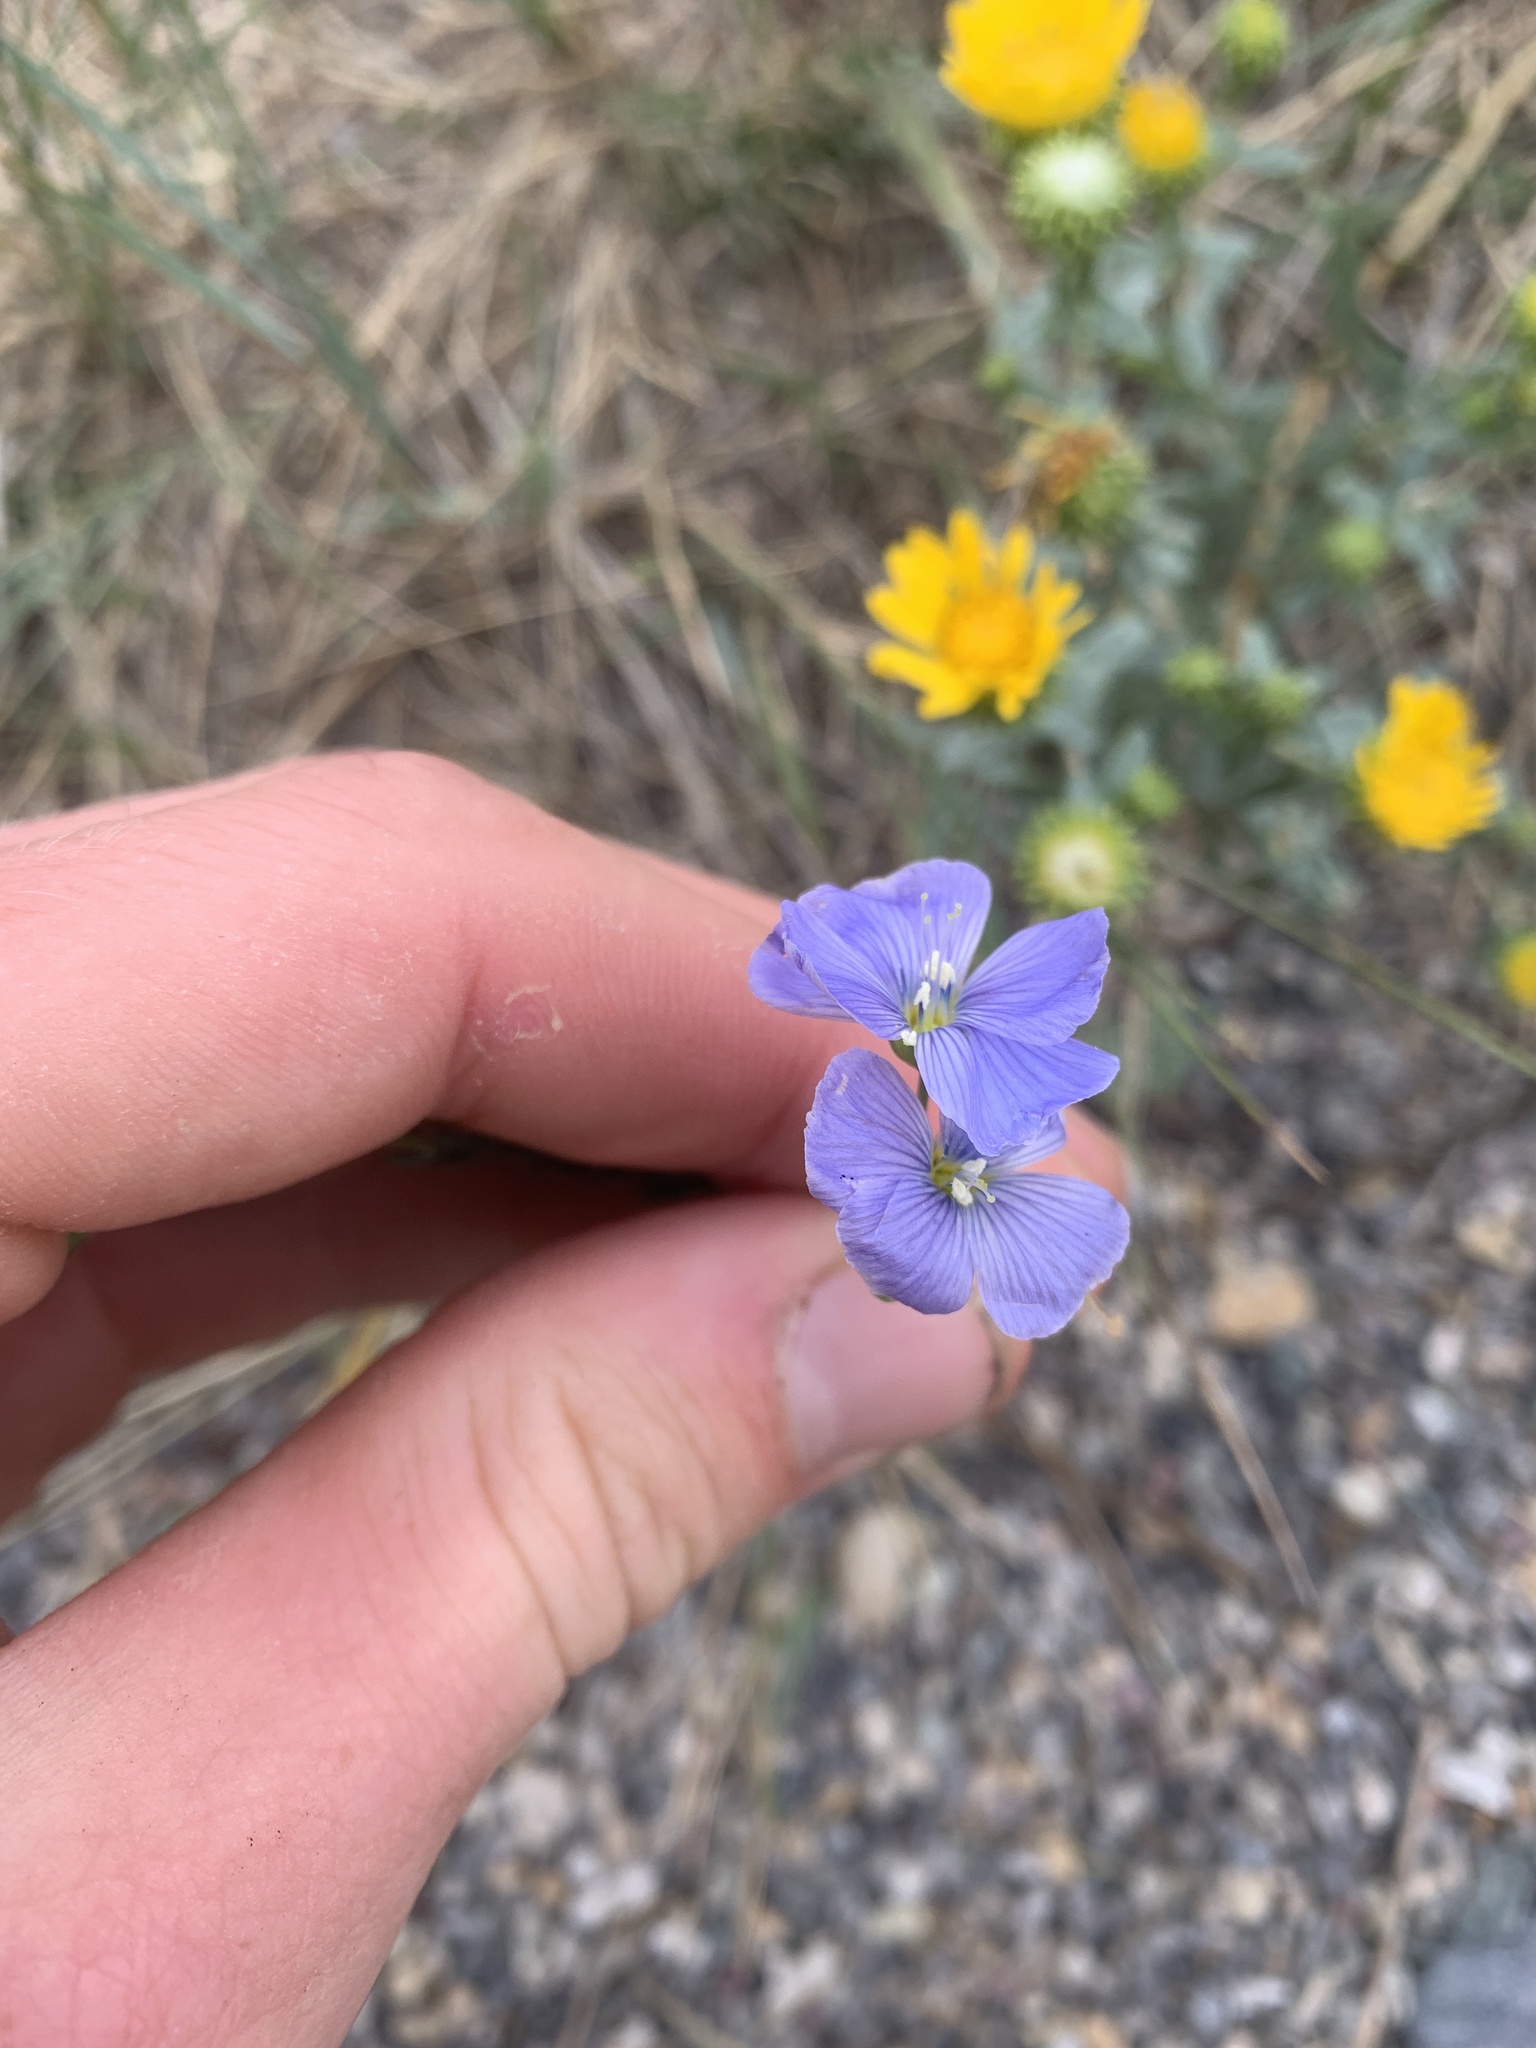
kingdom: Plantae
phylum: Tracheophyta
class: Magnoliopsida
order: Malpighiales
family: Linaceae
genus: Linum
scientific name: Linum lewisii
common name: Prairie flax
